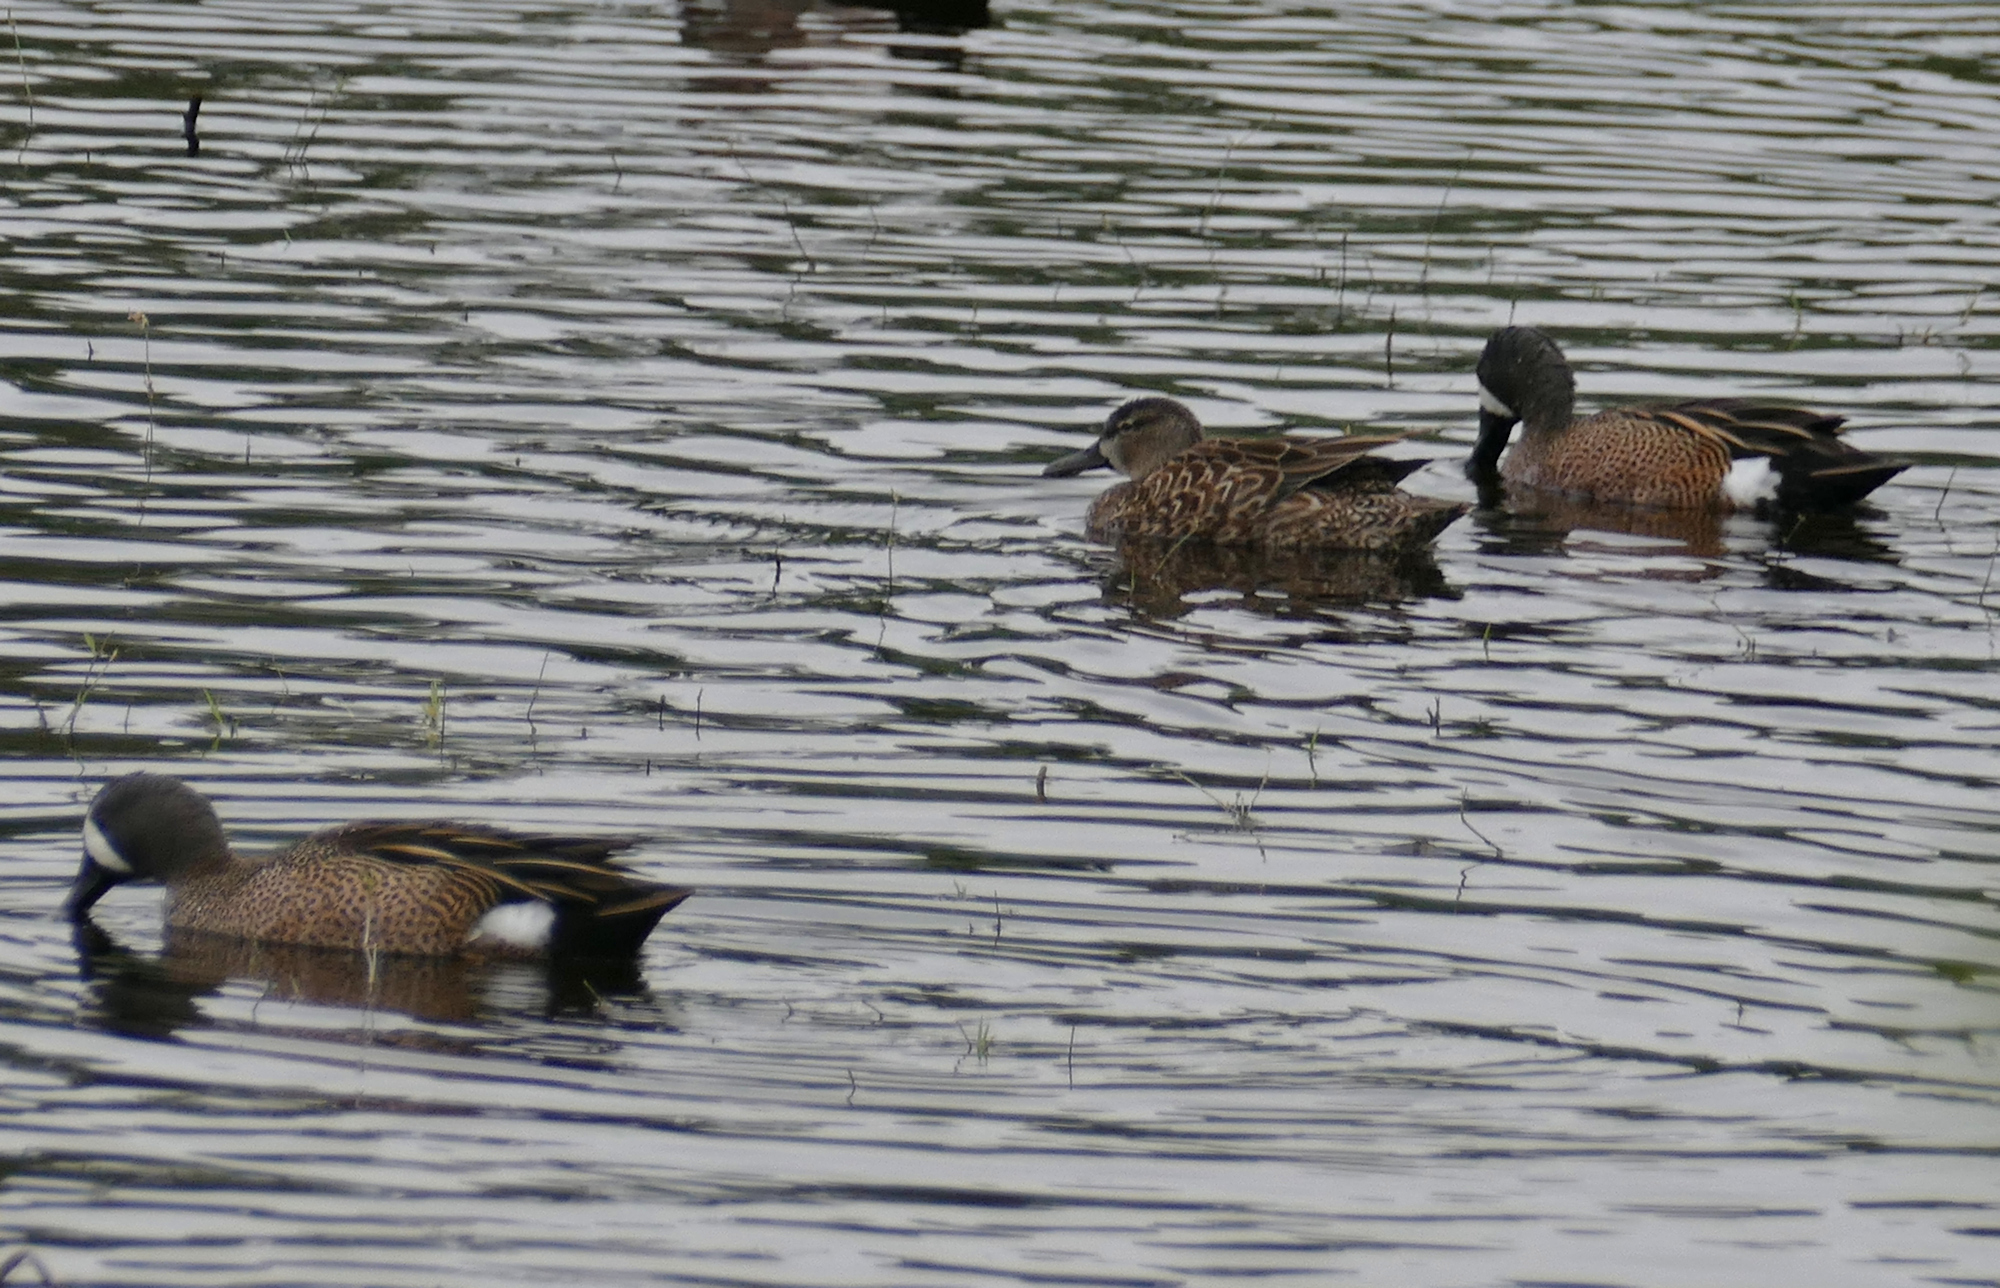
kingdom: Animalia
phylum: Chordata
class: Aves
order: Anseriformes
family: Anatidae
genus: Spatula
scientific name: Spatula discors
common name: Blue-winged teal
